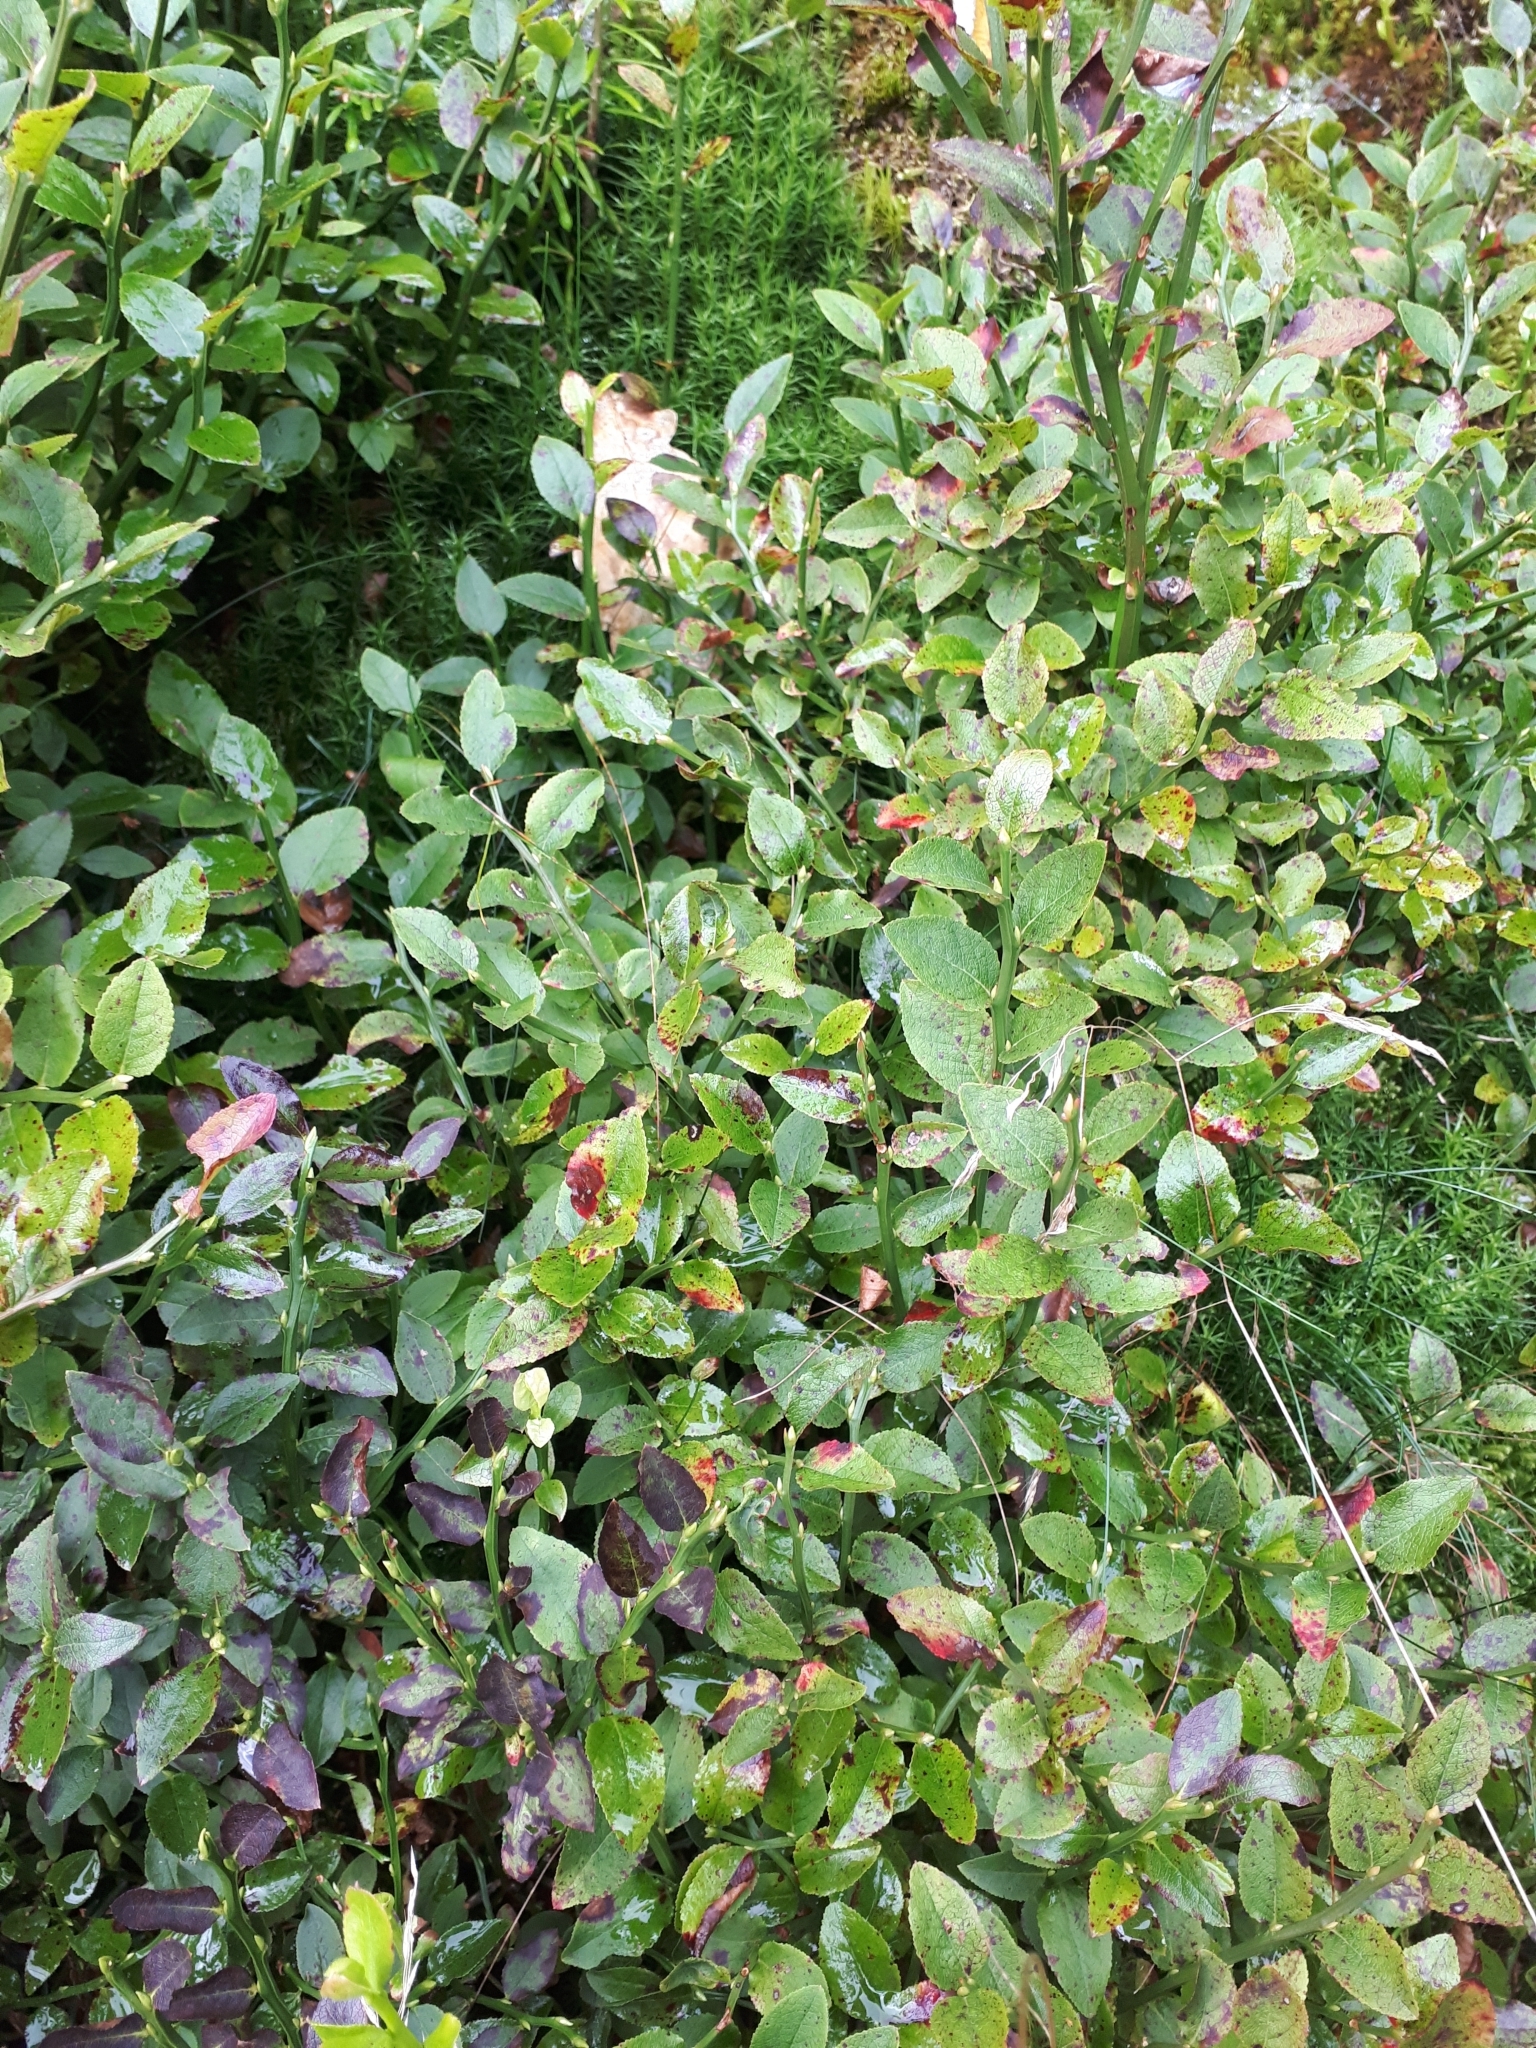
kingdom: Plantae
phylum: Tracheophyta
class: Magnoliopsida
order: Ericales
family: Ericaceae
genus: Vaccinium
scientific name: Vaccinium myrtillus
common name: Bilberry
